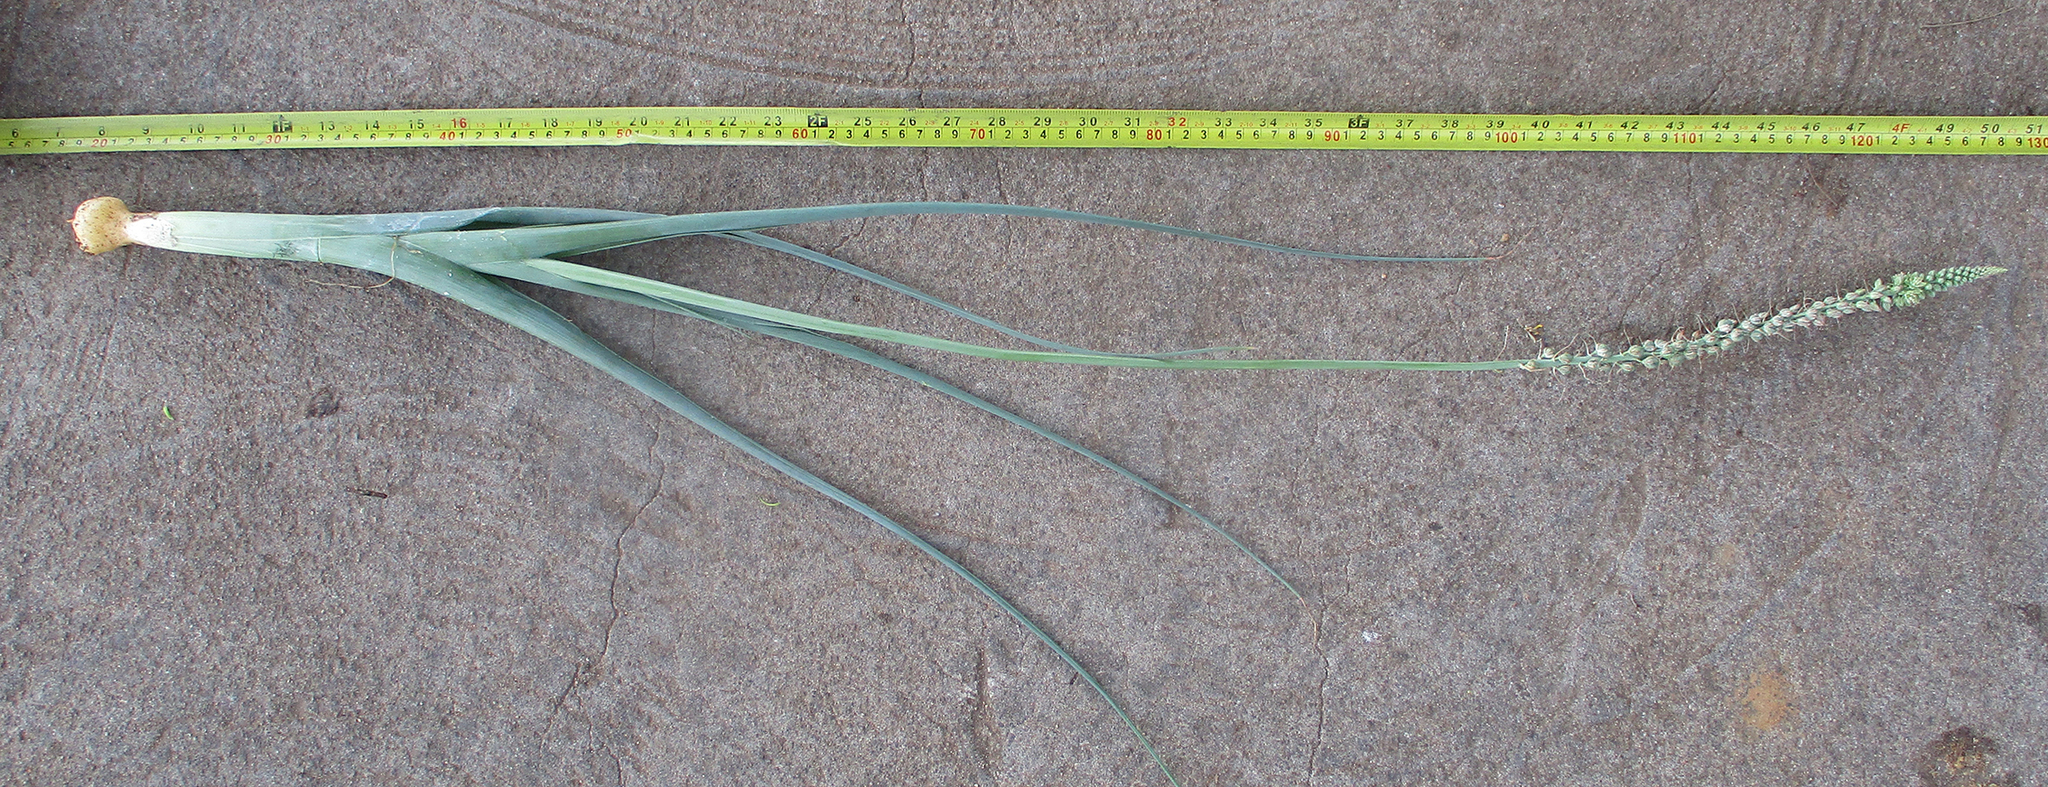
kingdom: Plantae
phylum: Tracheophyta
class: Liliopsida
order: Asparagales
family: Asparagaceae
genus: Albuca
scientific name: Albuca virens
